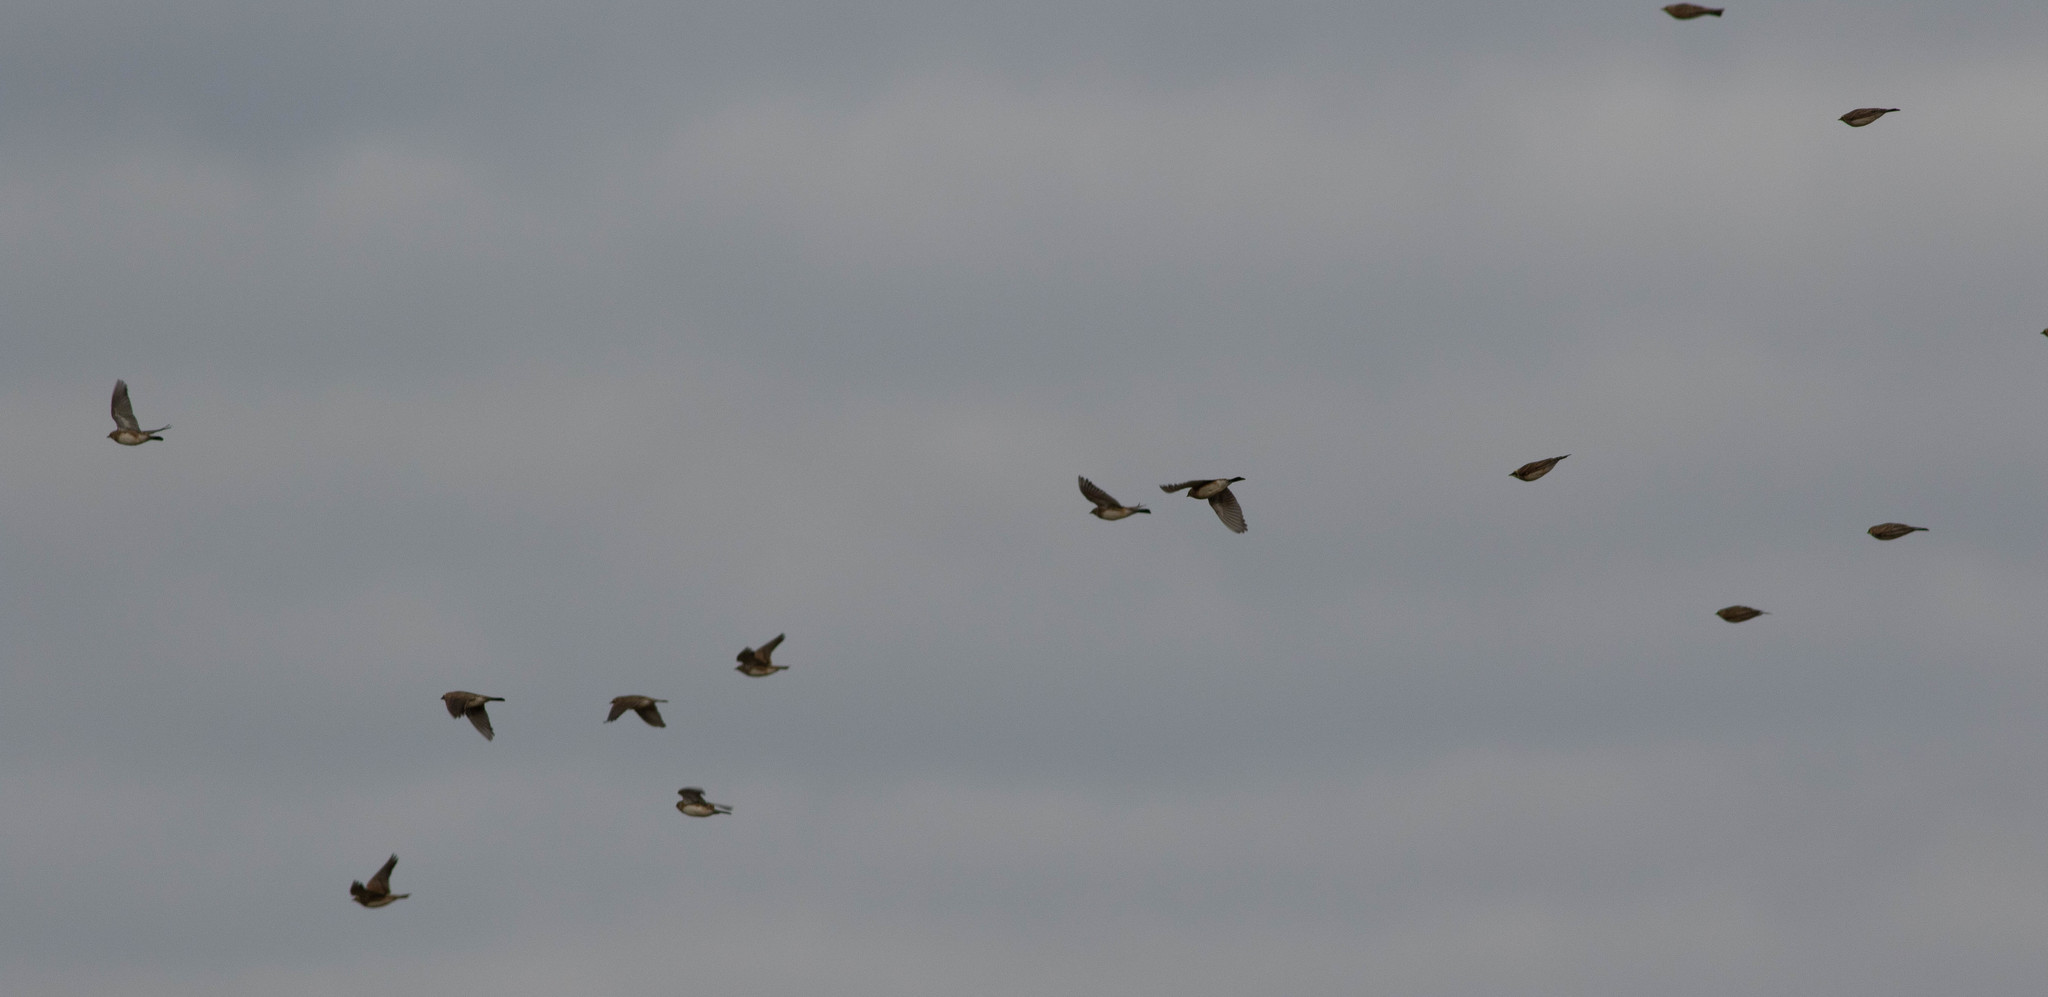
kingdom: Animalia
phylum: Chordata
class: Aves
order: Passeriformes
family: Alaudidae
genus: Eremophila
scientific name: Eremophila alpestris
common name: Horned lark
